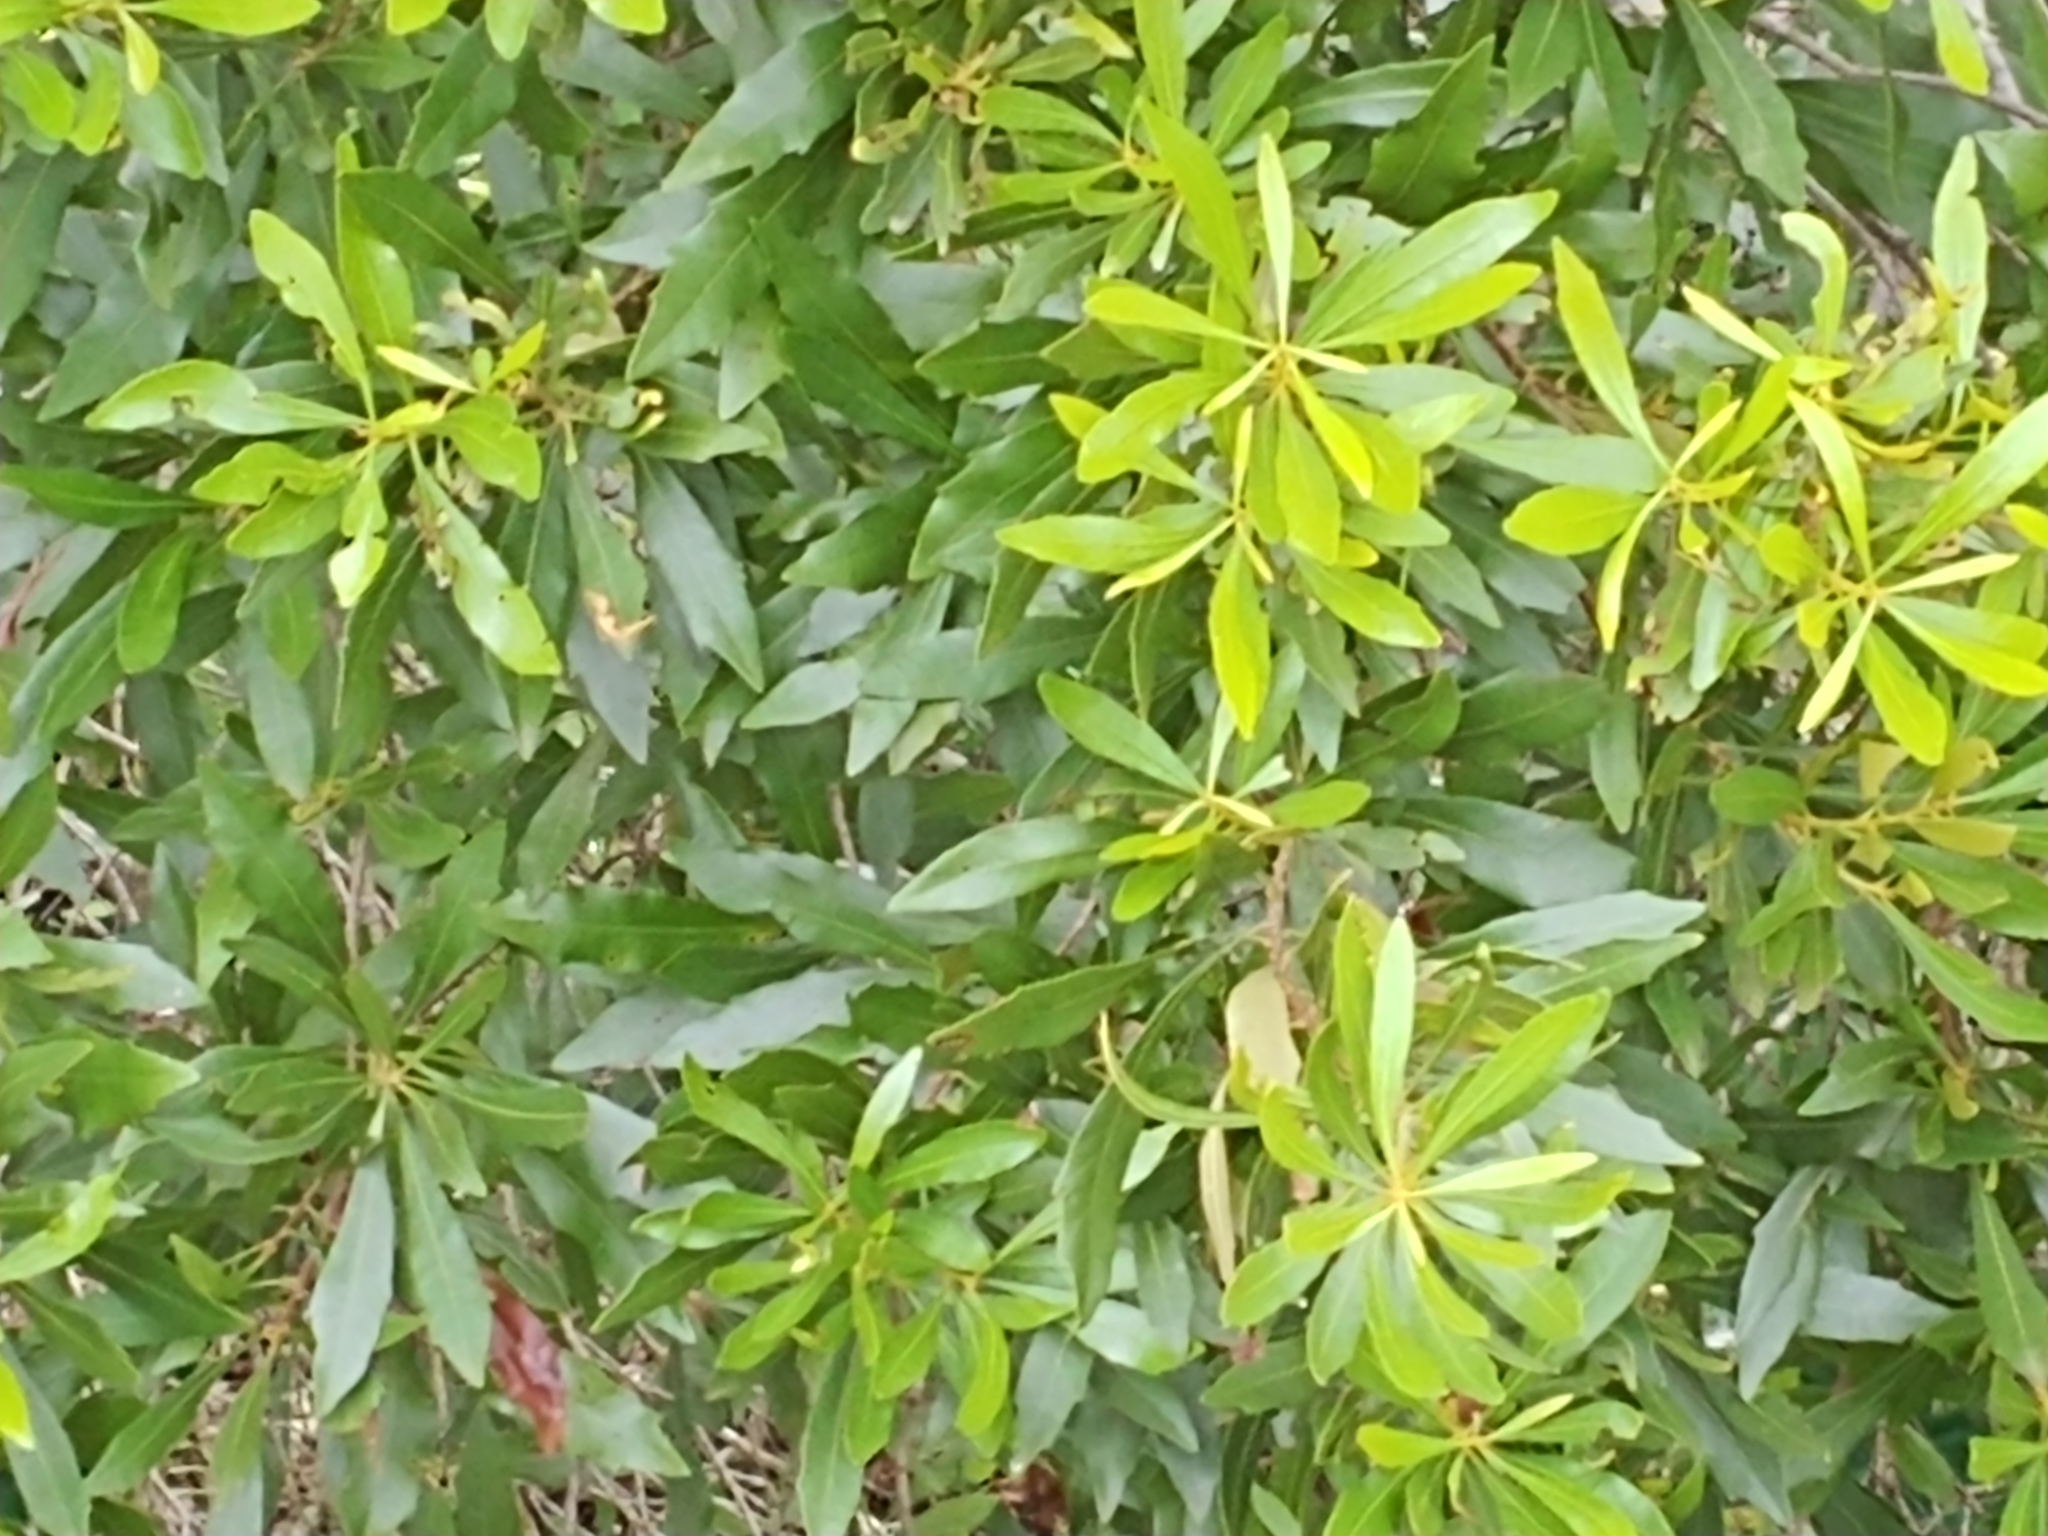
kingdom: Plantae
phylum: Tracheophyta
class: Magnoliopsida
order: Fagales
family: Myricaceae
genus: Morella
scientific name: Morella cerifera
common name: Wax myrtle
